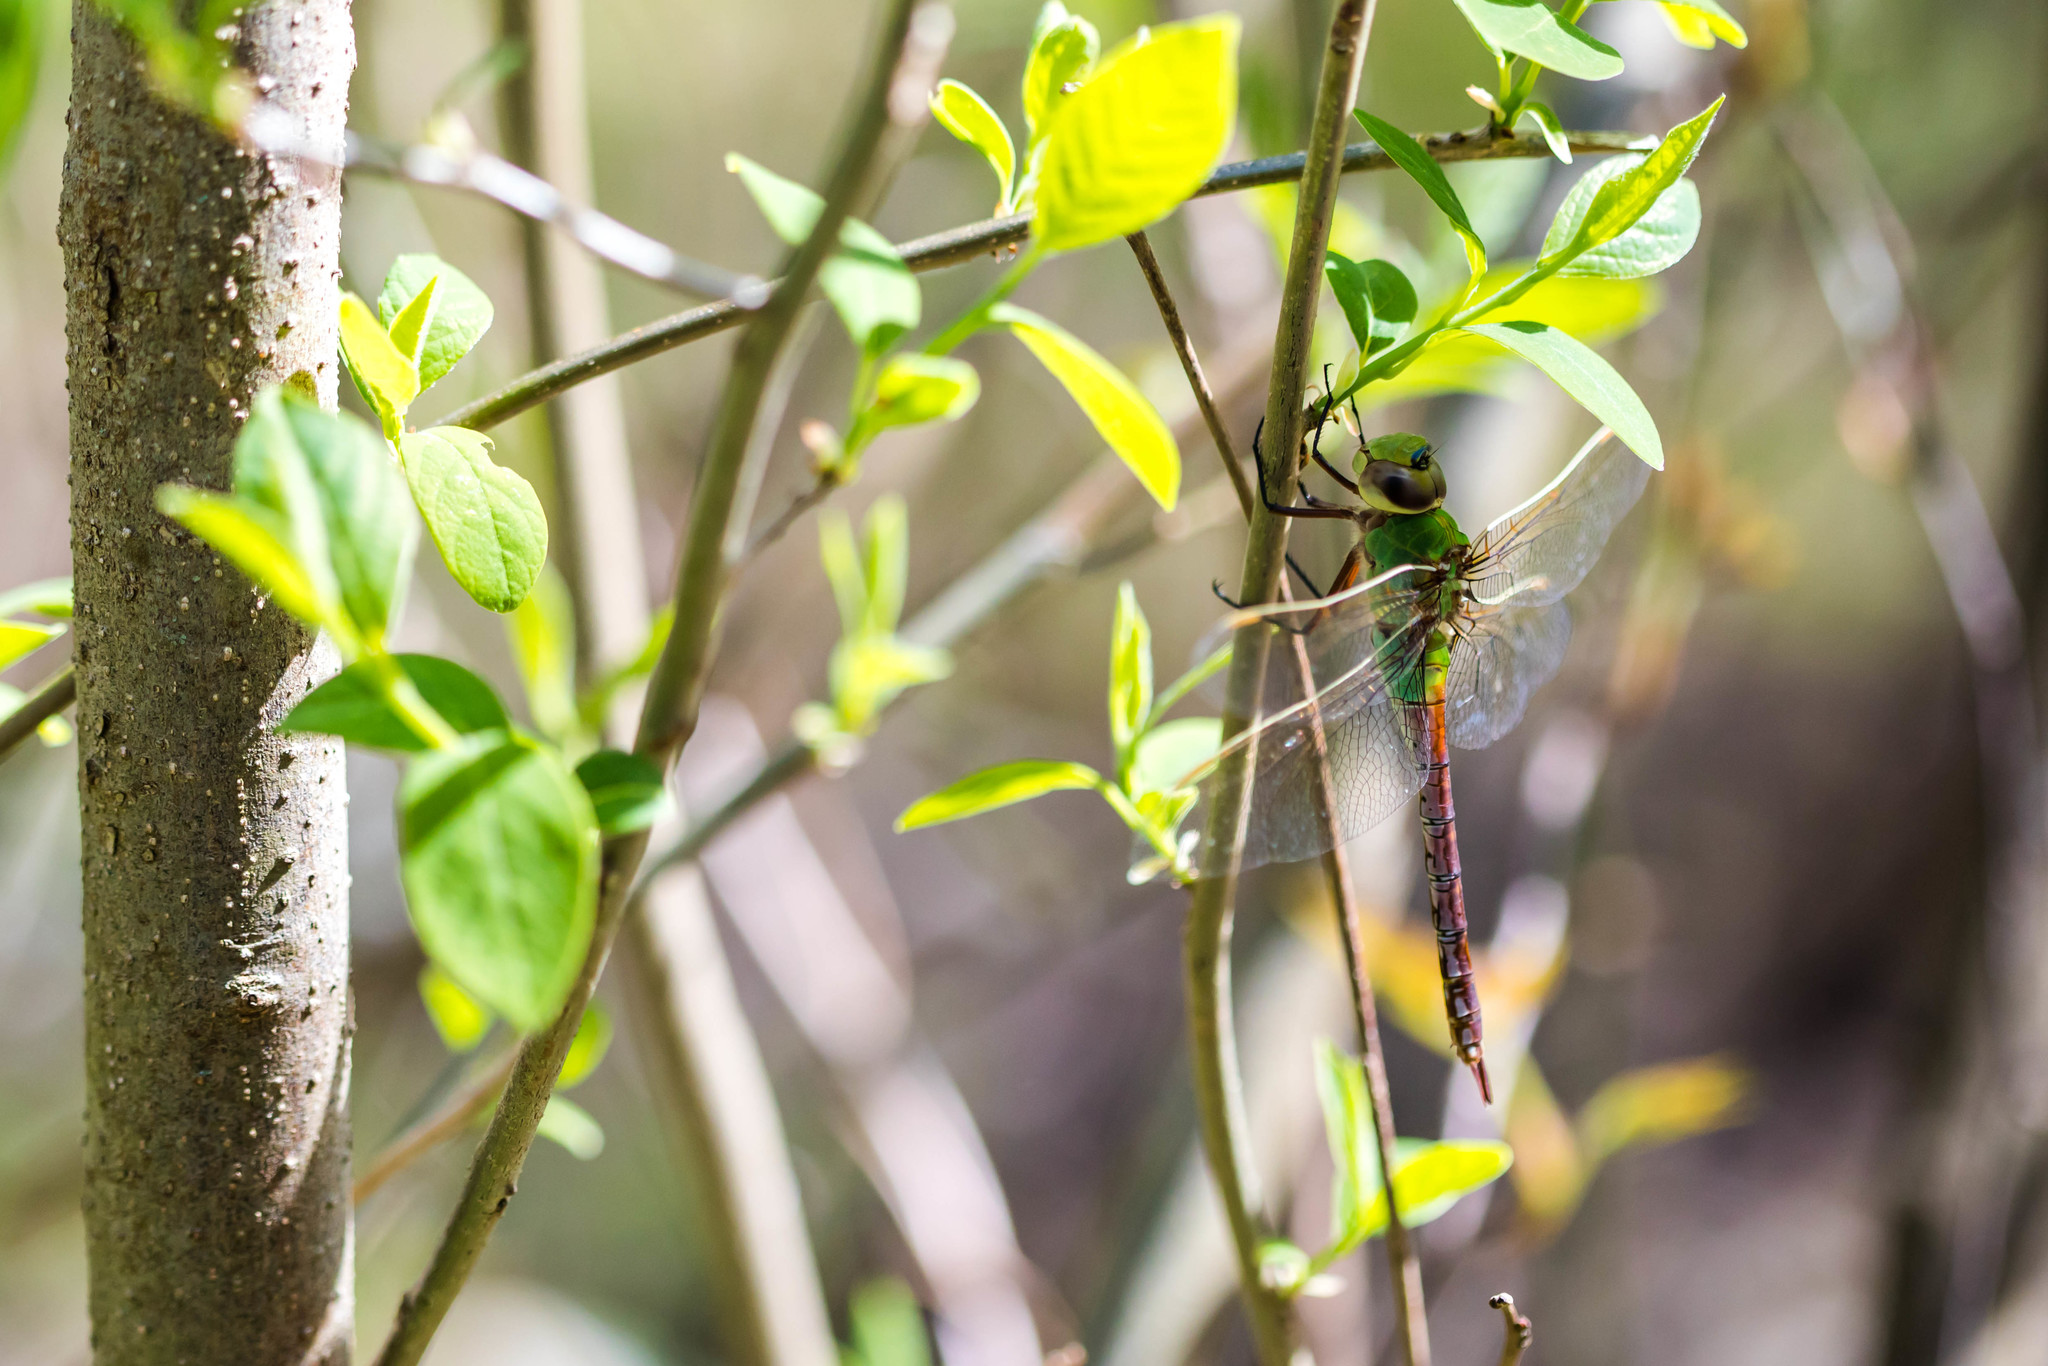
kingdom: Animalia
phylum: Arthropoda
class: Insecta
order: Odonata
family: Aeshnidae
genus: Anax
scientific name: Anax junius
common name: Common green darner
